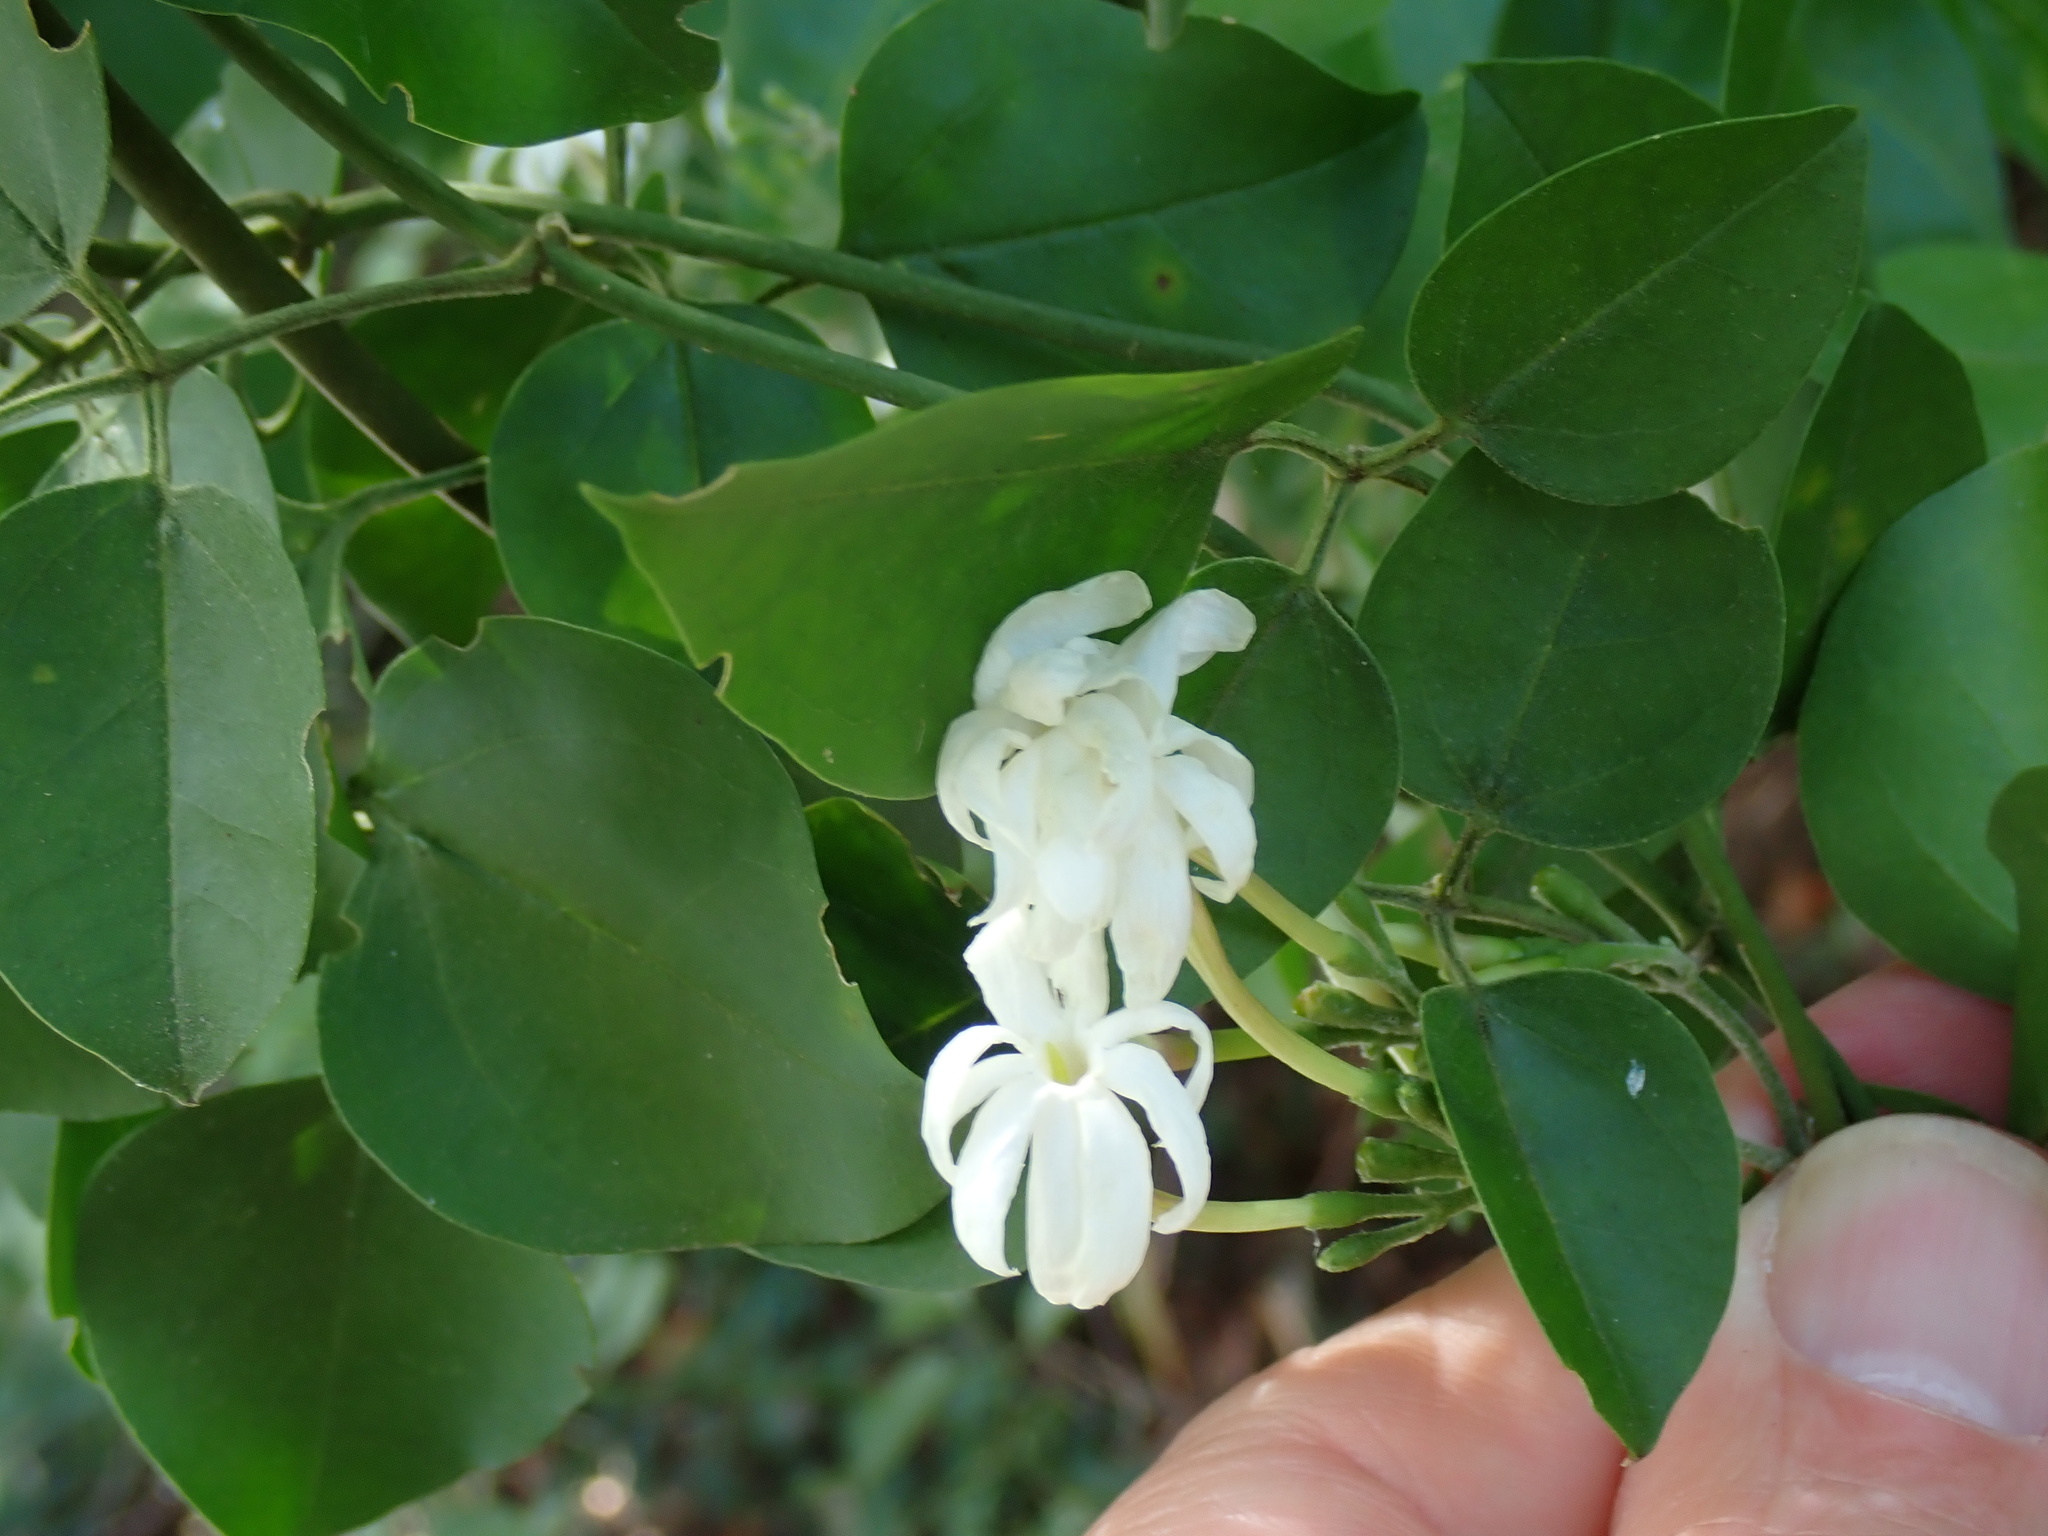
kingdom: Plantae
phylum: Tracheophyta
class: Magnoliopsida
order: Lamiales
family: Oleaceae
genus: Jasminum
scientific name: Jasminum fluminense
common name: Brazilian jasmine
